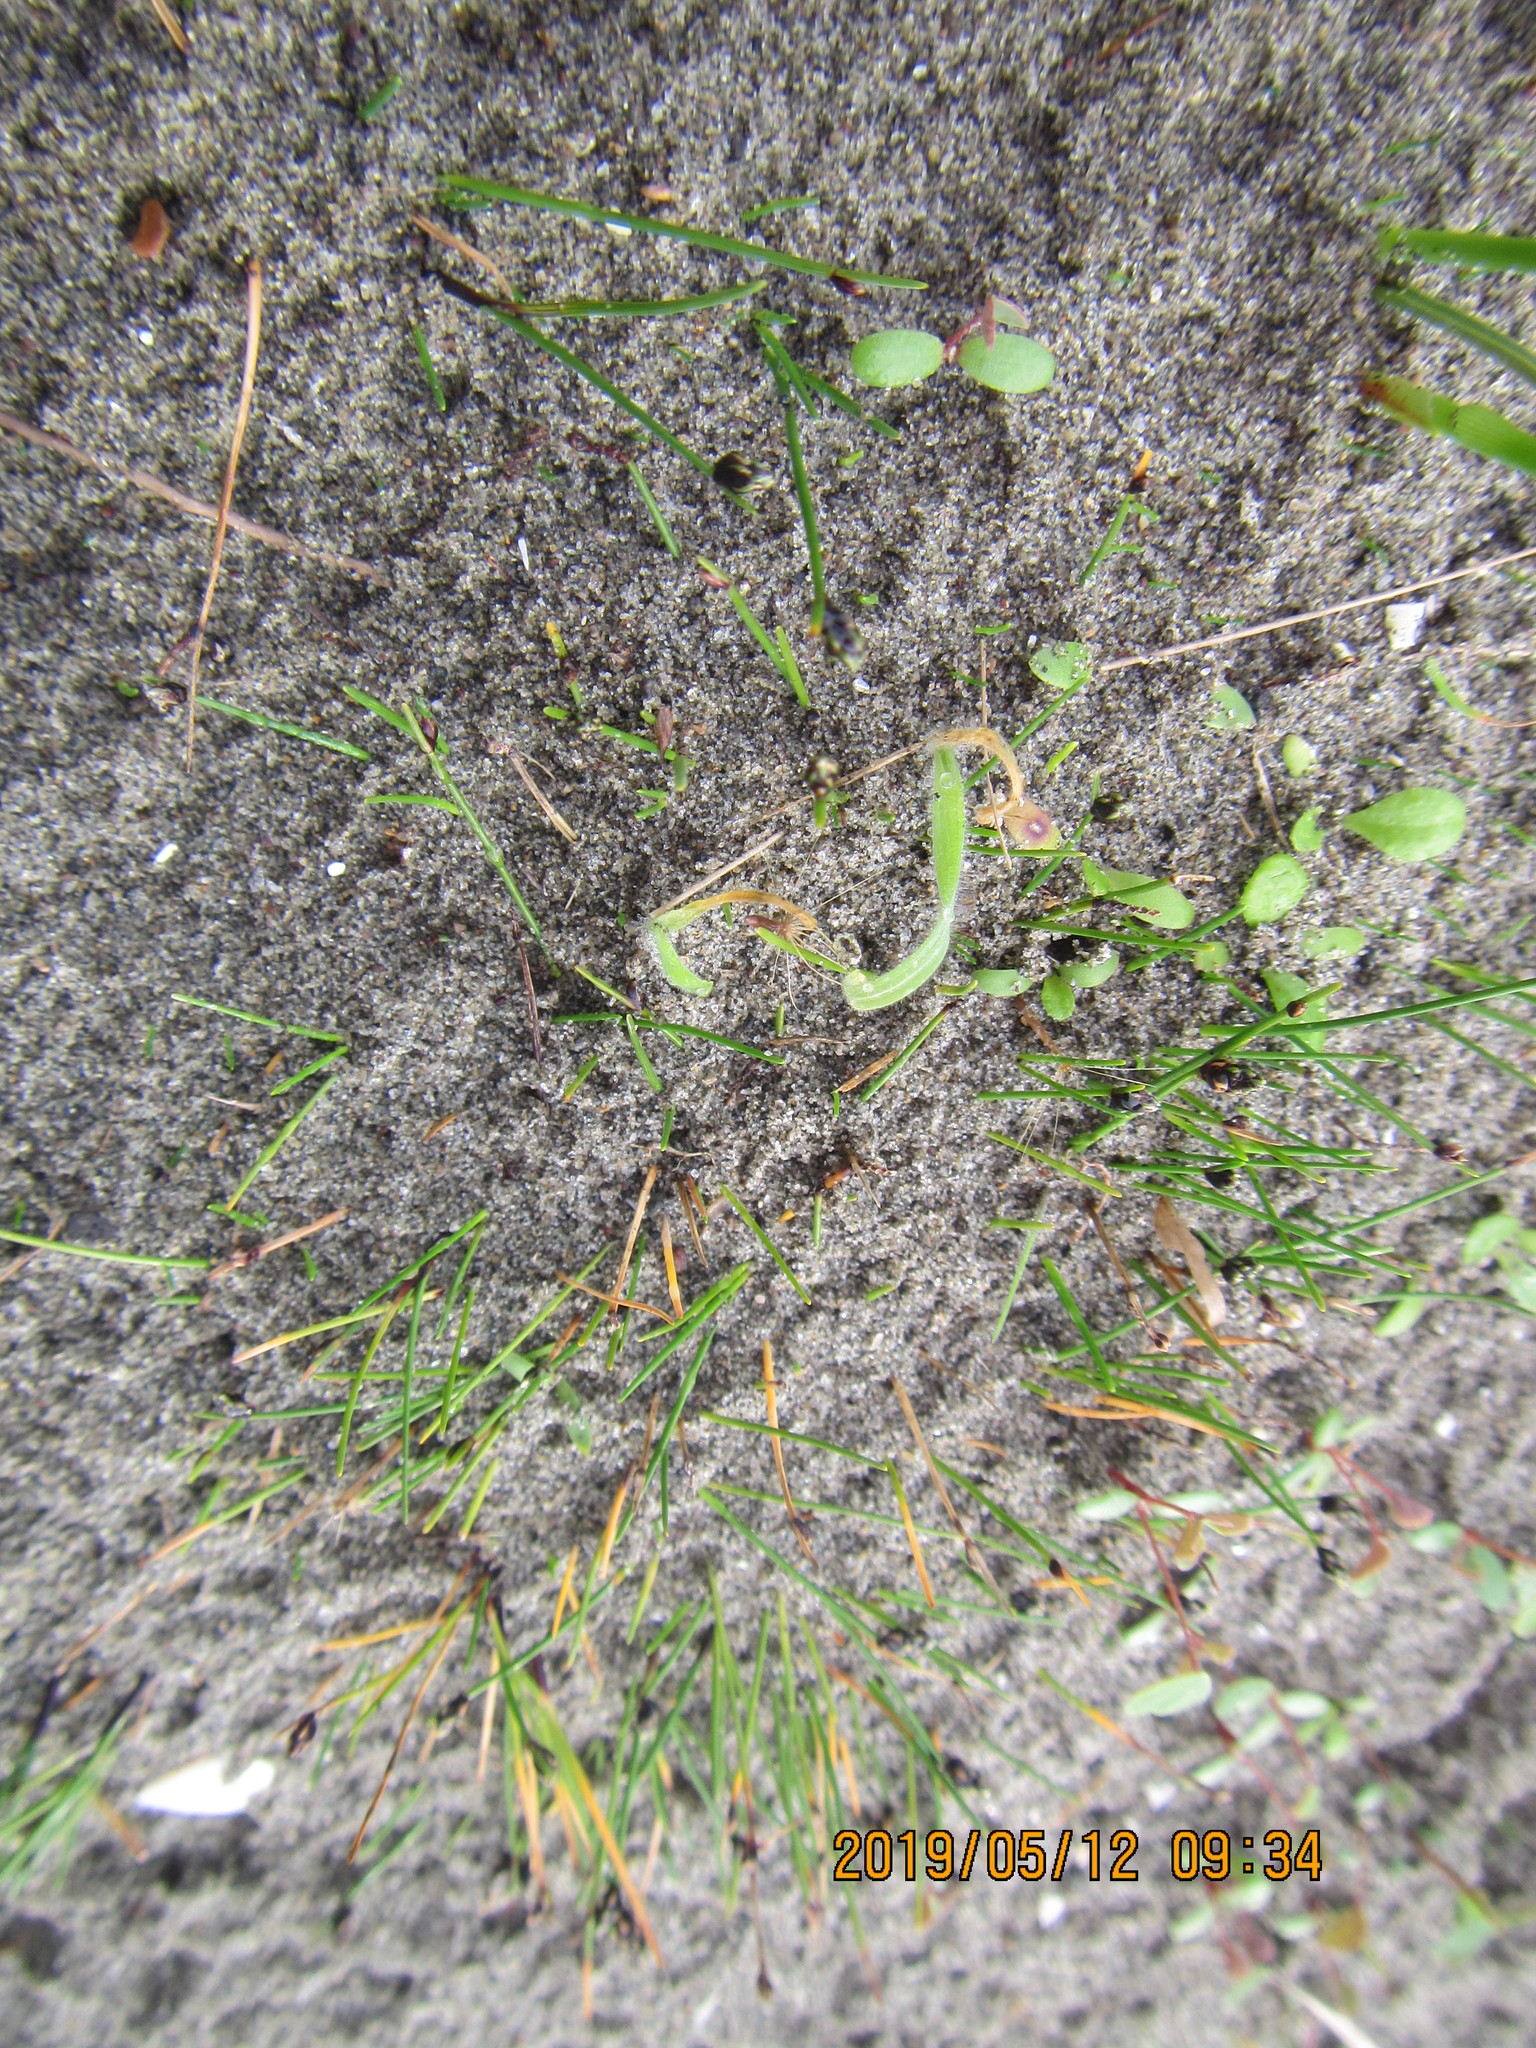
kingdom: Plantae
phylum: Tracheophyta
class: Liliopsida
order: Poales
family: Cyperaceae
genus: Isolepis
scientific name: Isolepis cernua
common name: Slender club-rush
